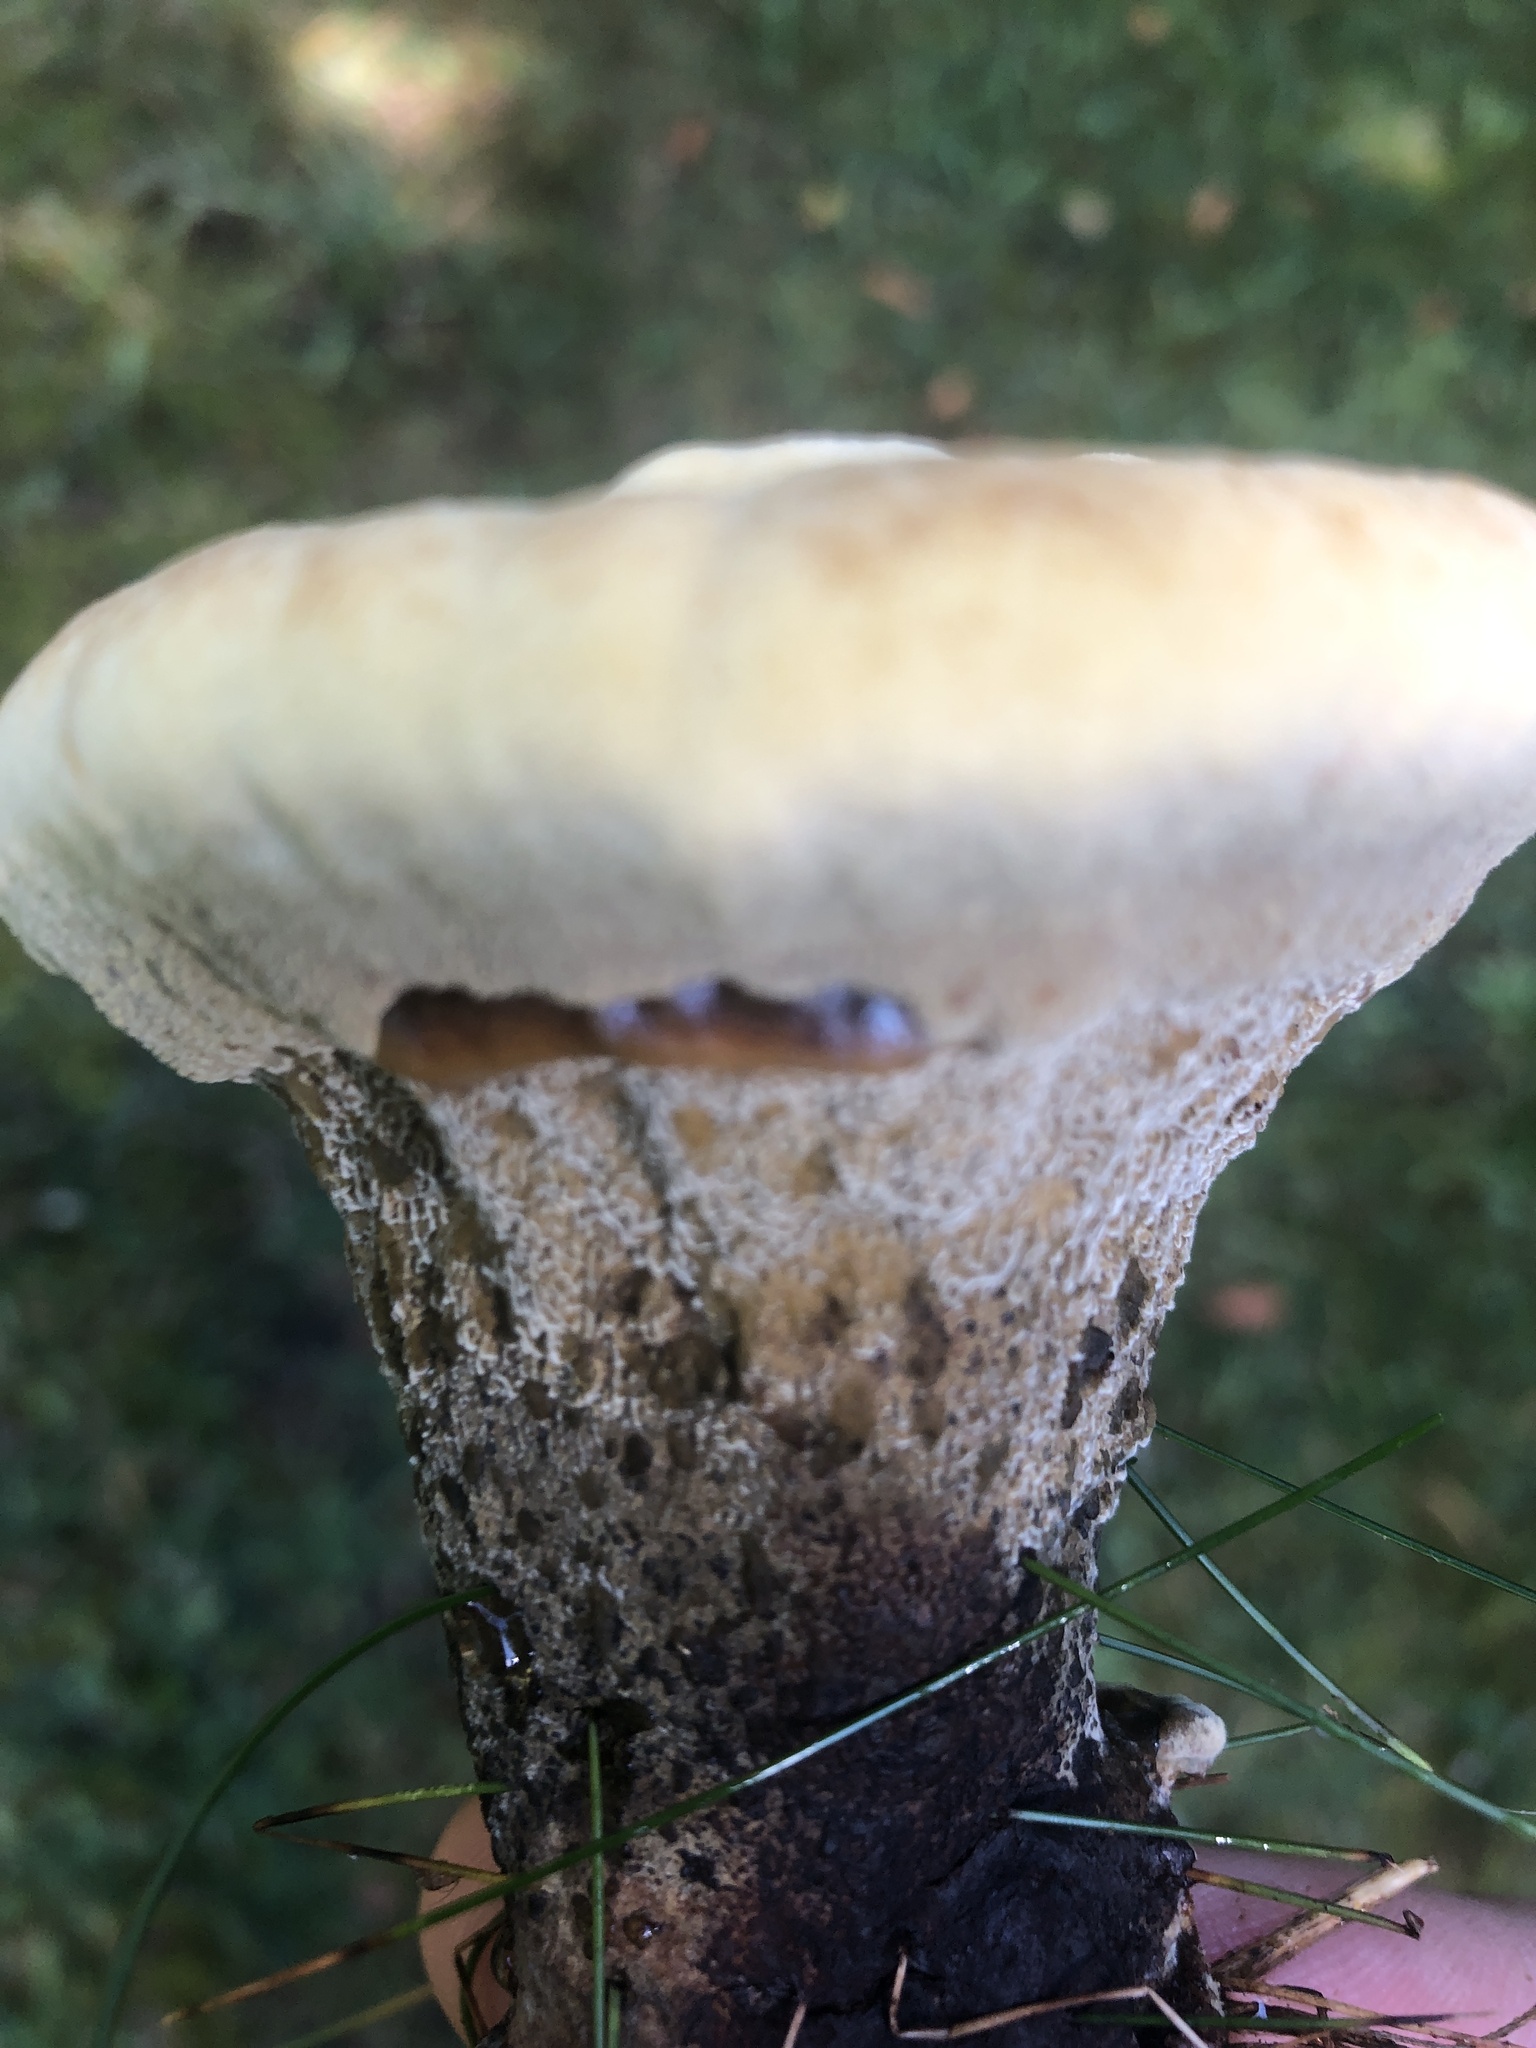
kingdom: Fungi
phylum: Basidiomycota
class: Agaricomycetes
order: Polyporales
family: Podoscyphaceae
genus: Abortiporus
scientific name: Abortiporus biennis
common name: Blushing rosette
